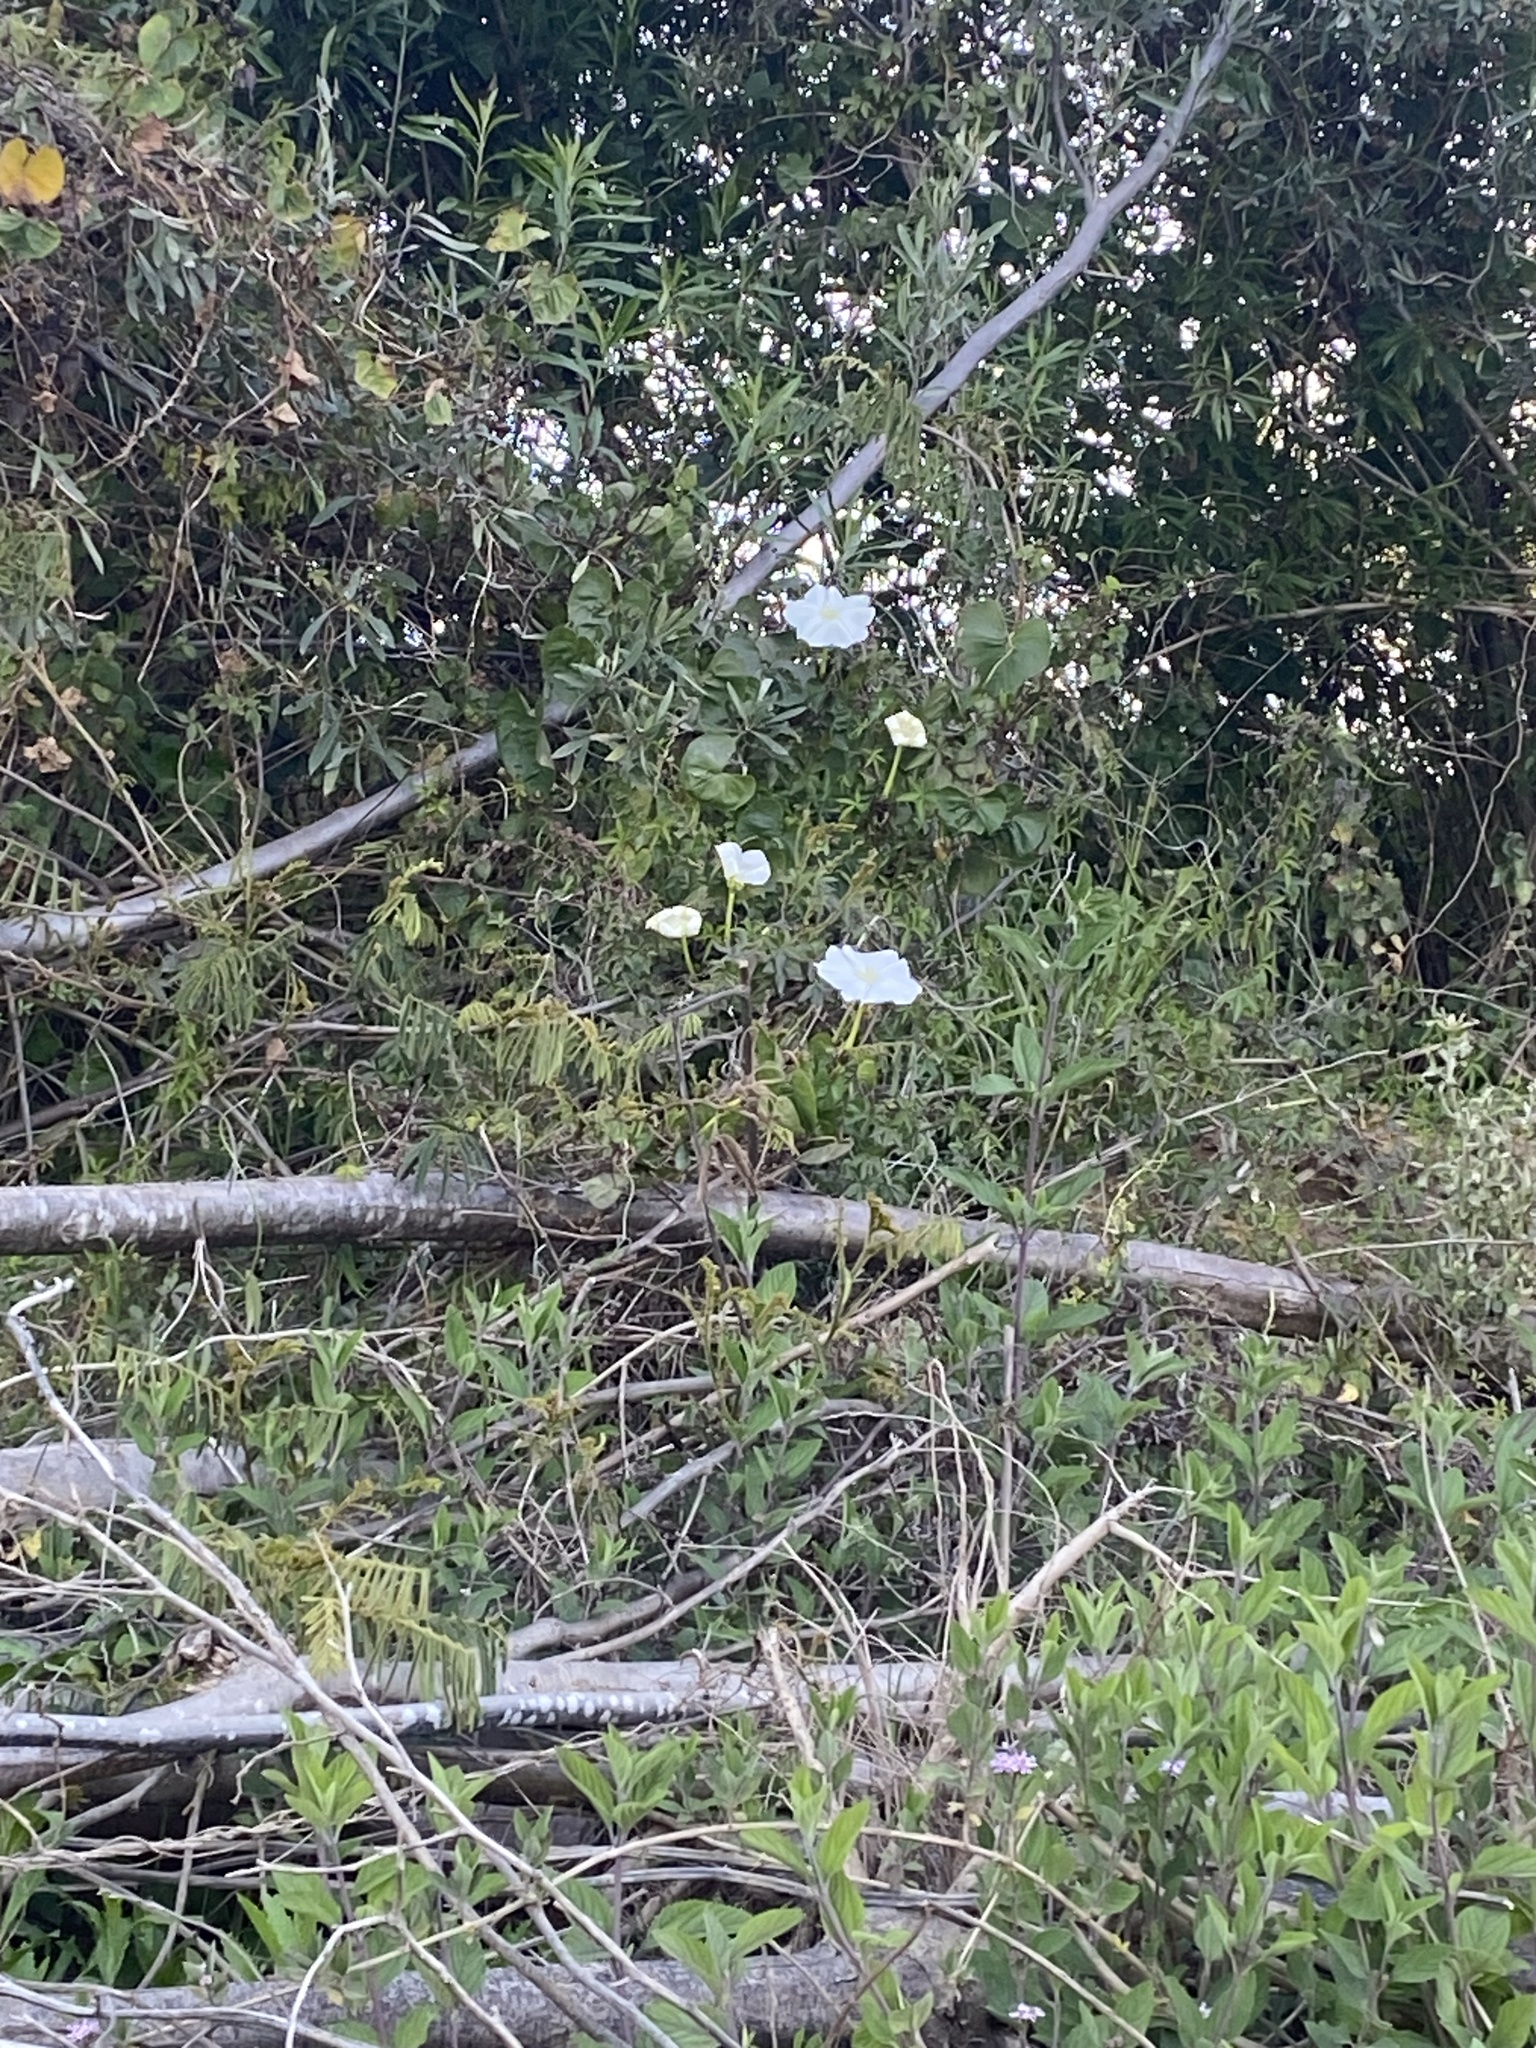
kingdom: Plantae
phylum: Tracheophyta
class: Magnoliopsida
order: Solanales
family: Convolvulaceae
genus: Ipomoea
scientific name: Ipomoea alba
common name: Moonflower
